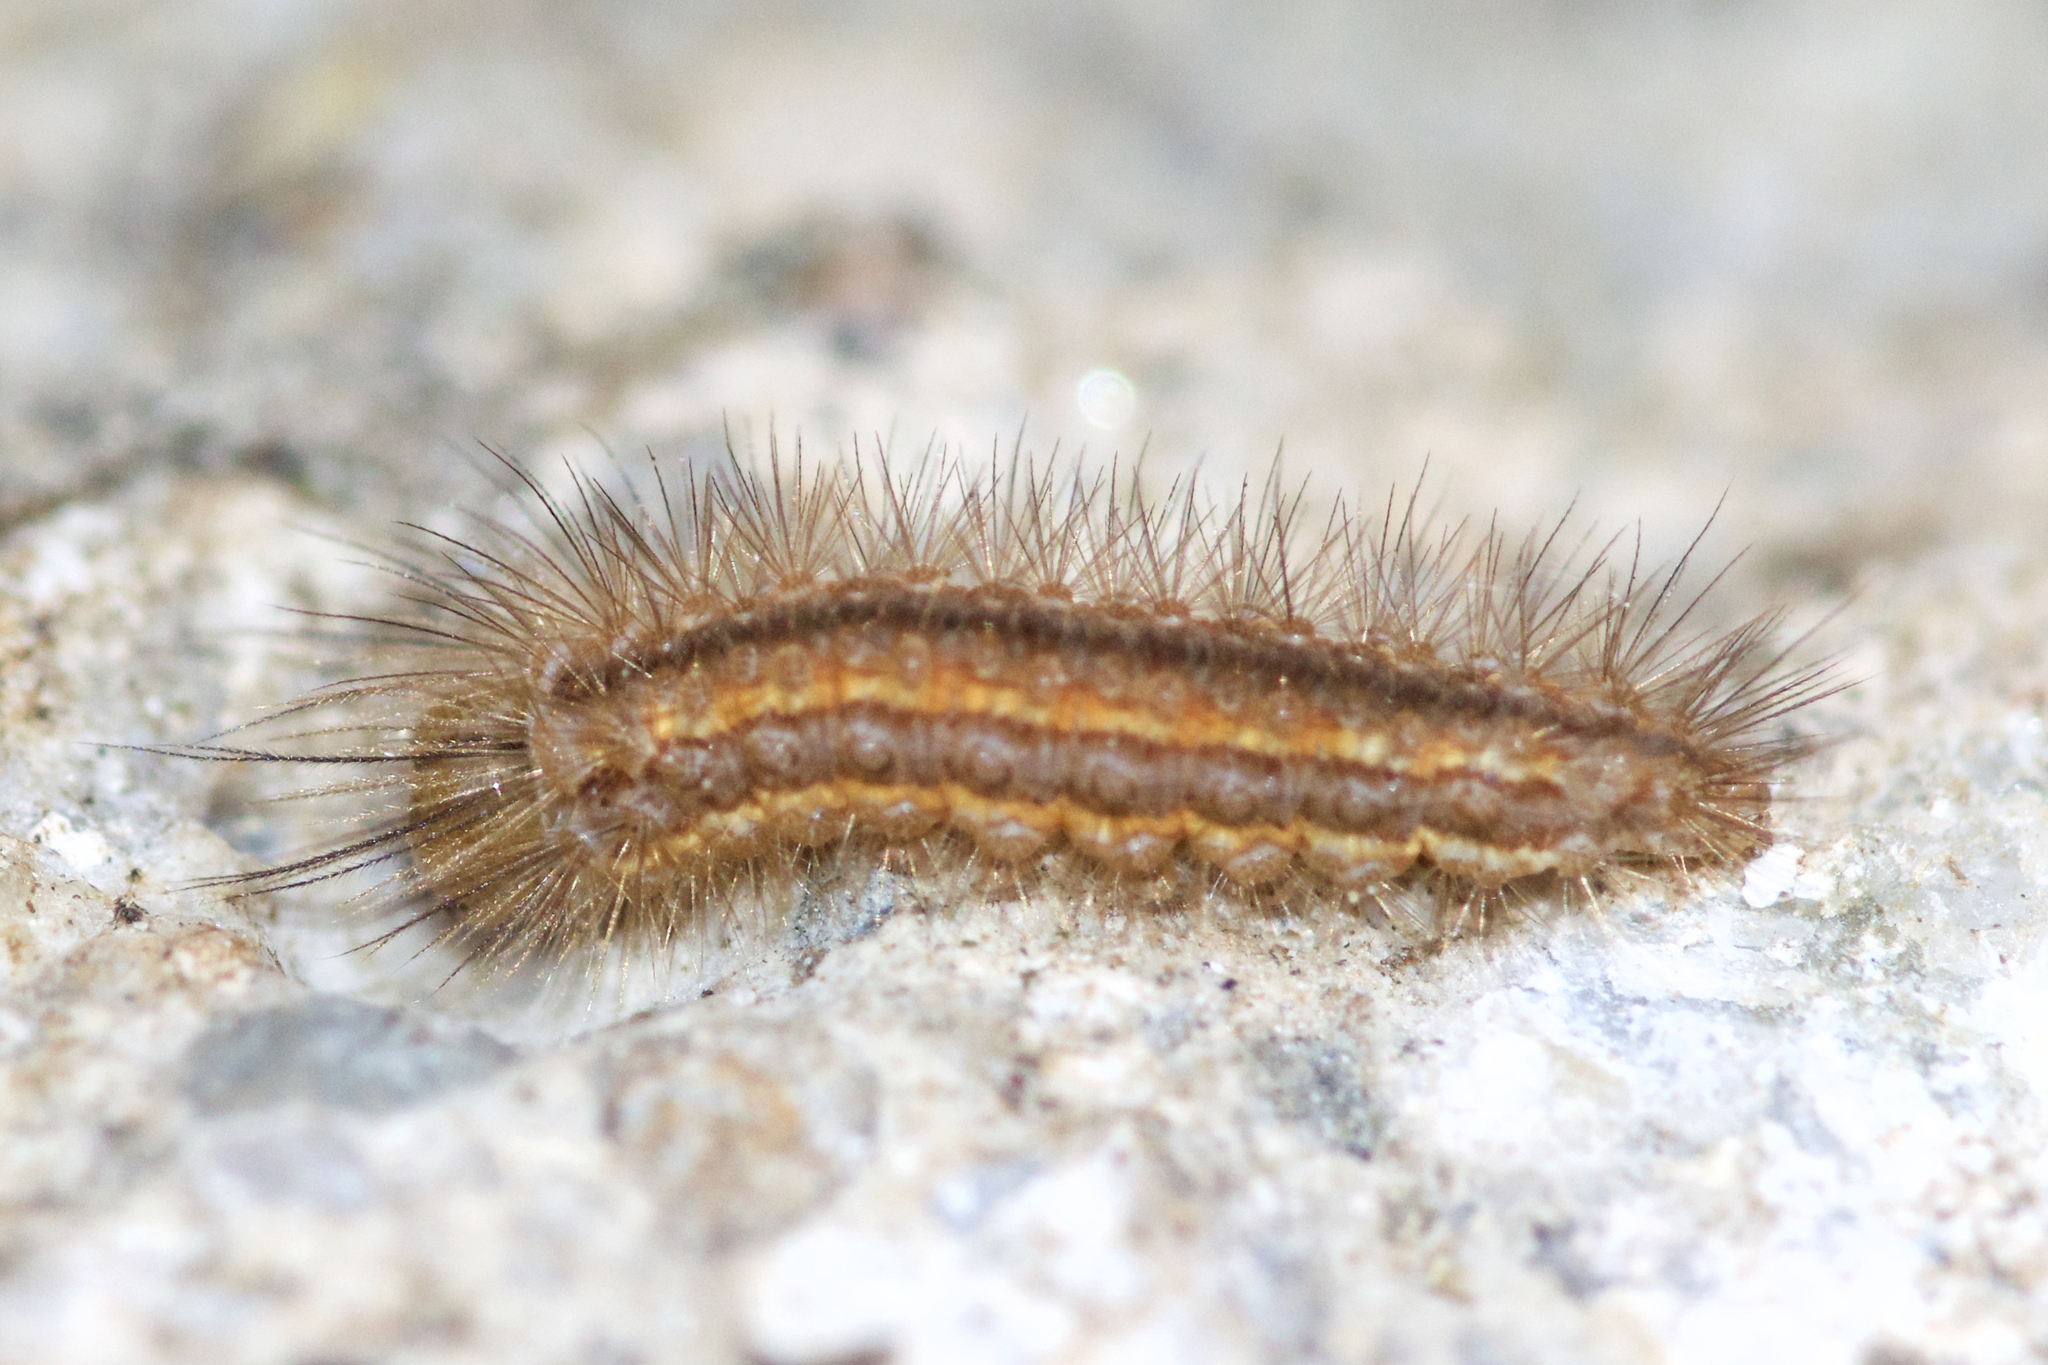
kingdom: Animalia
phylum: Arthropoda
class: Insecta
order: Lepidoptera
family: Erebidae
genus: Cisseps
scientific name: Cisseps fulvicollis
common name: Yellow-collared scape moth
